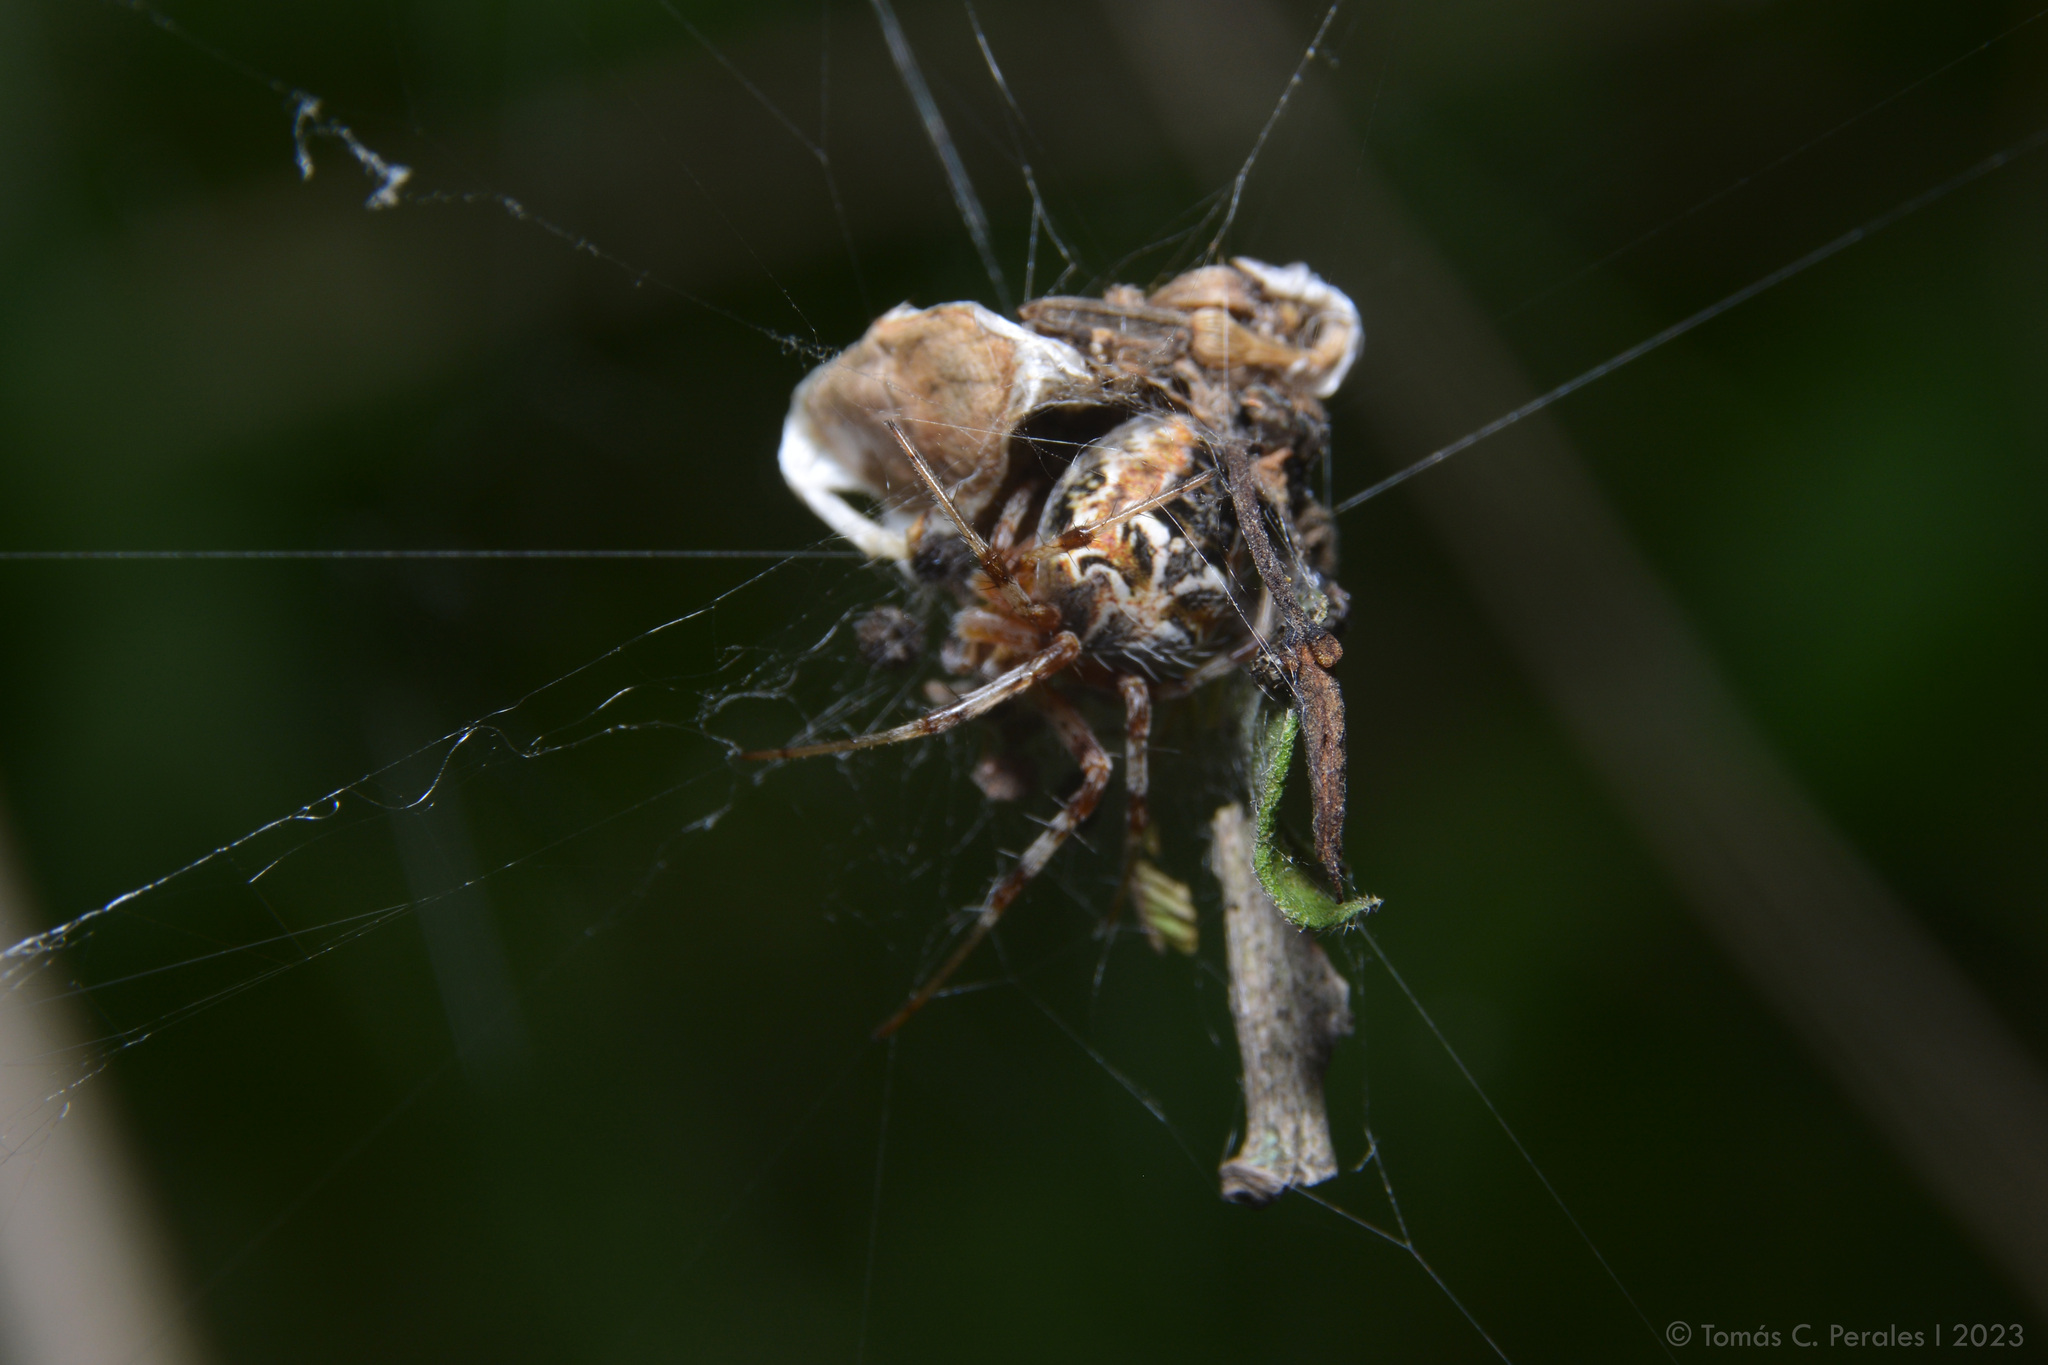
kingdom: Animalia
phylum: Arthropoda
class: Arachnida
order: Araneae
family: Araneidae
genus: Metepeira
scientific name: Metepeira
